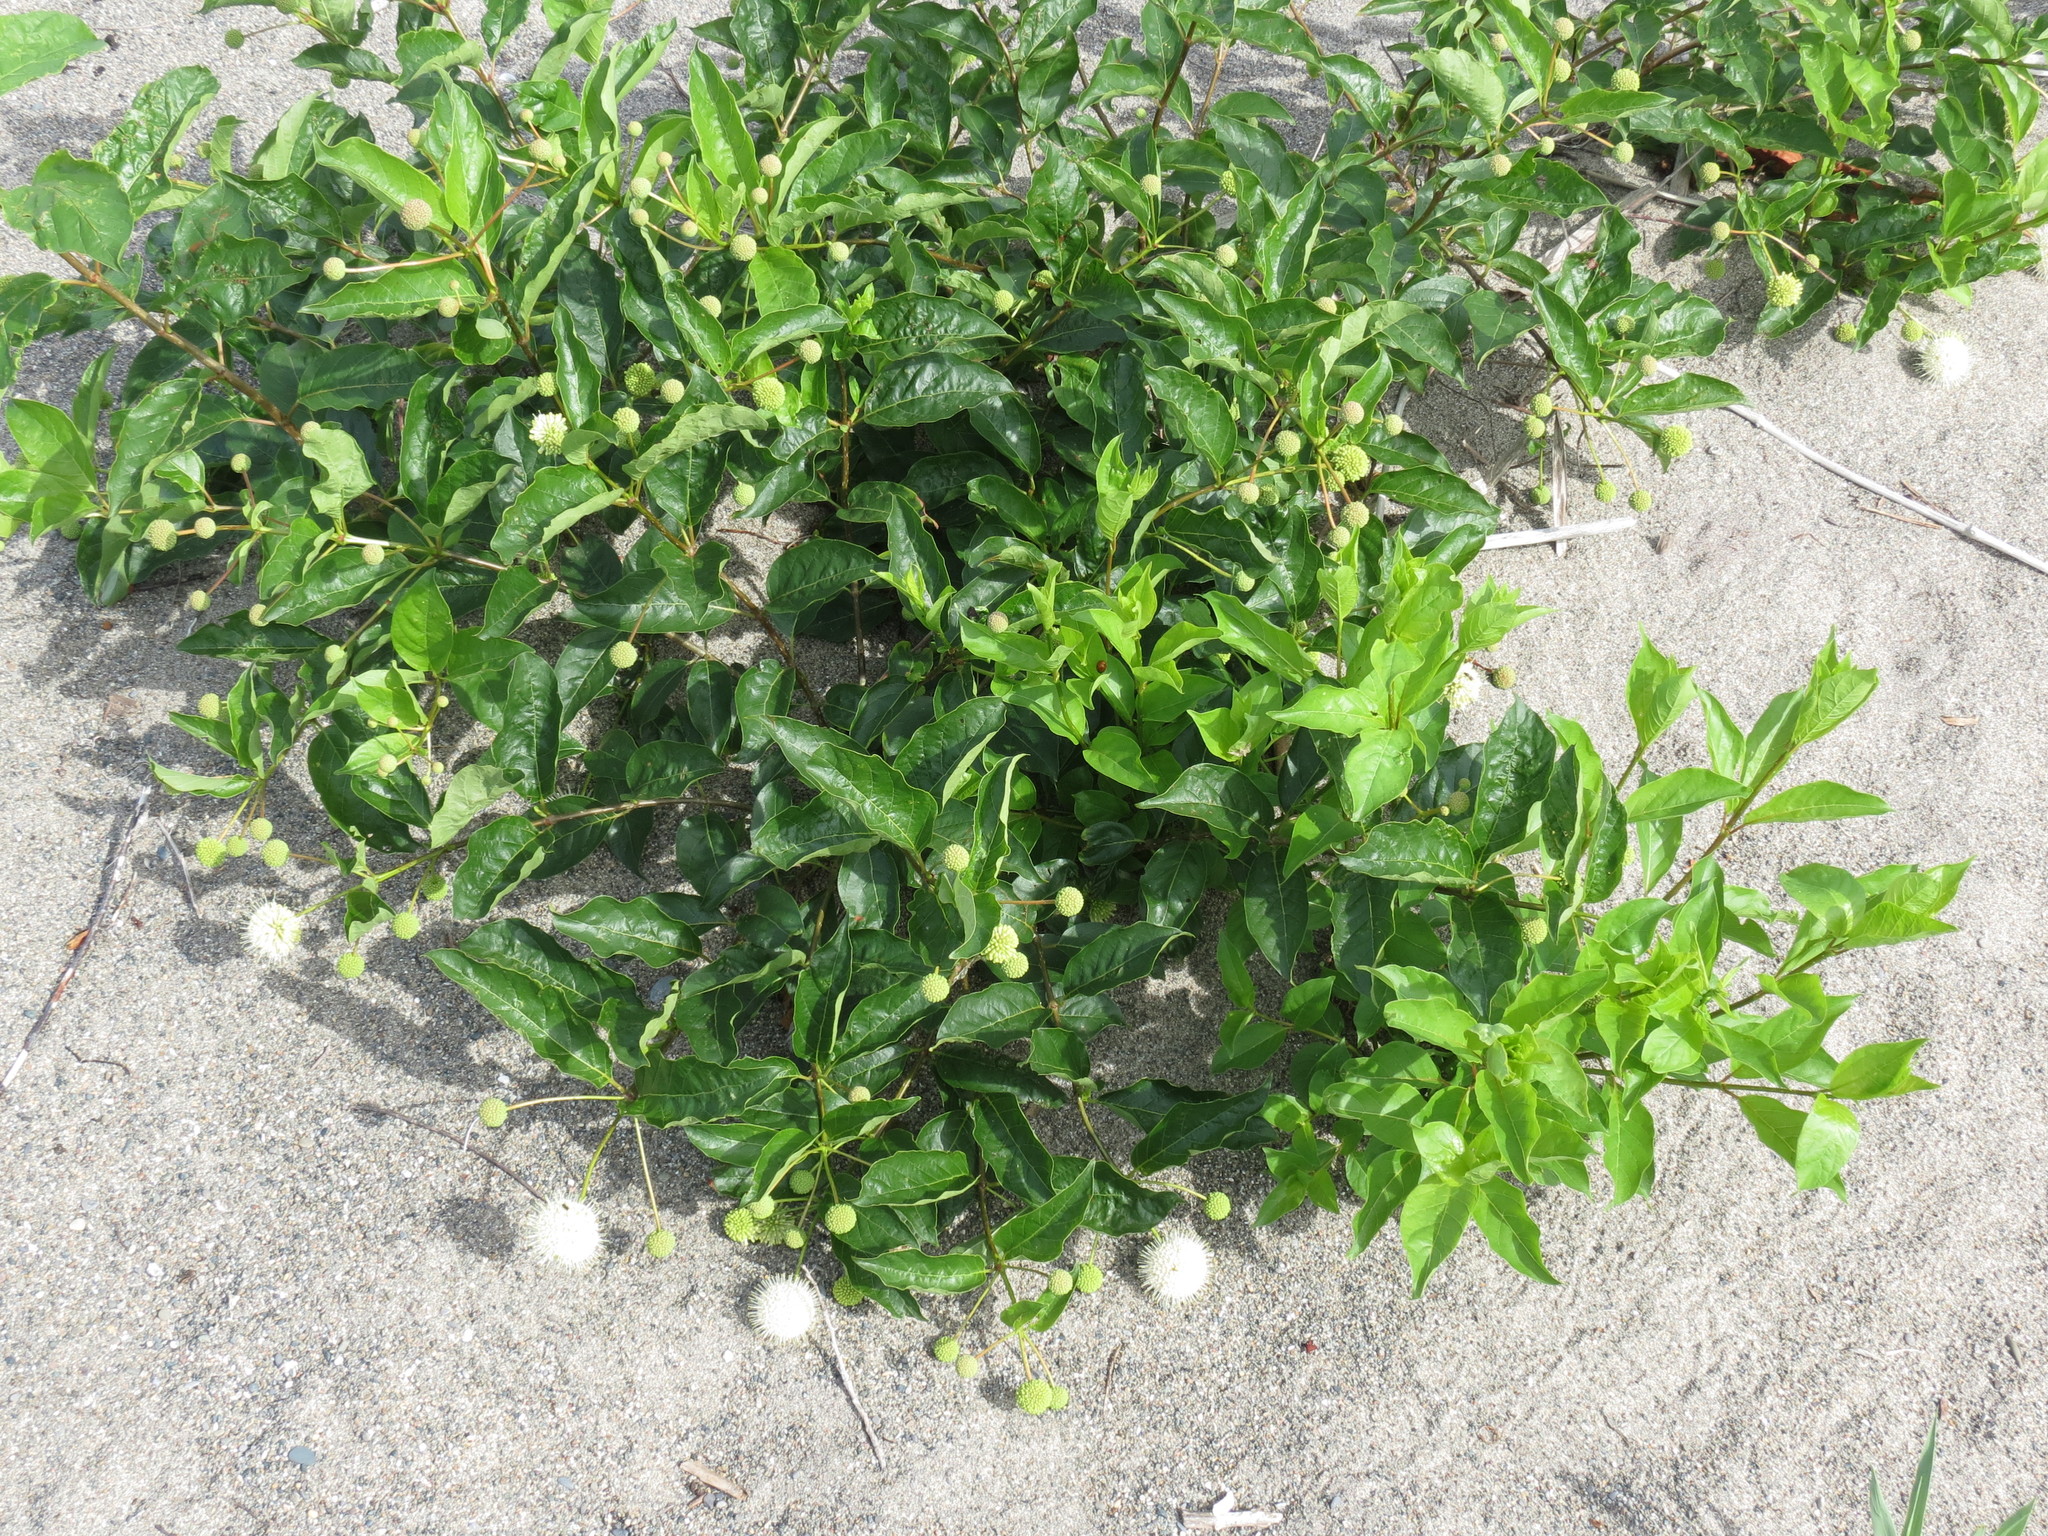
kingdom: Plantae
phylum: Tracheophyta
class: Magnoliopsida
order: Gentianales
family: Rubiaceae
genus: Cephalanthus
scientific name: Cephalanthus occidentalis
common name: Button-willow
